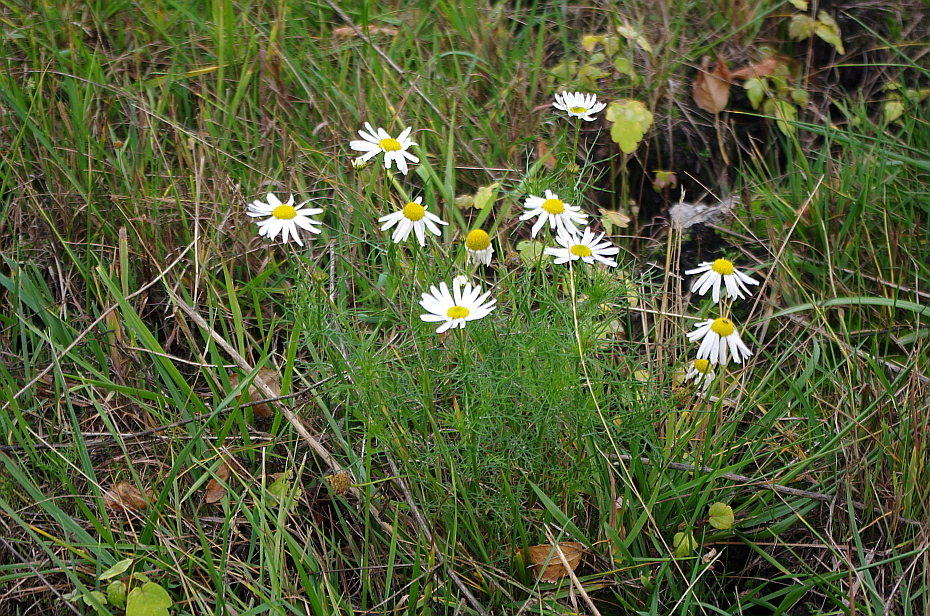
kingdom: Plantae
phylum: Tracheophyta
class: Magnoliopsida
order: Asterales
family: Asteraceae
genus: Tripleurospermum
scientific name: Tripleurospermum inodorum
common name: Scentless mayweed
